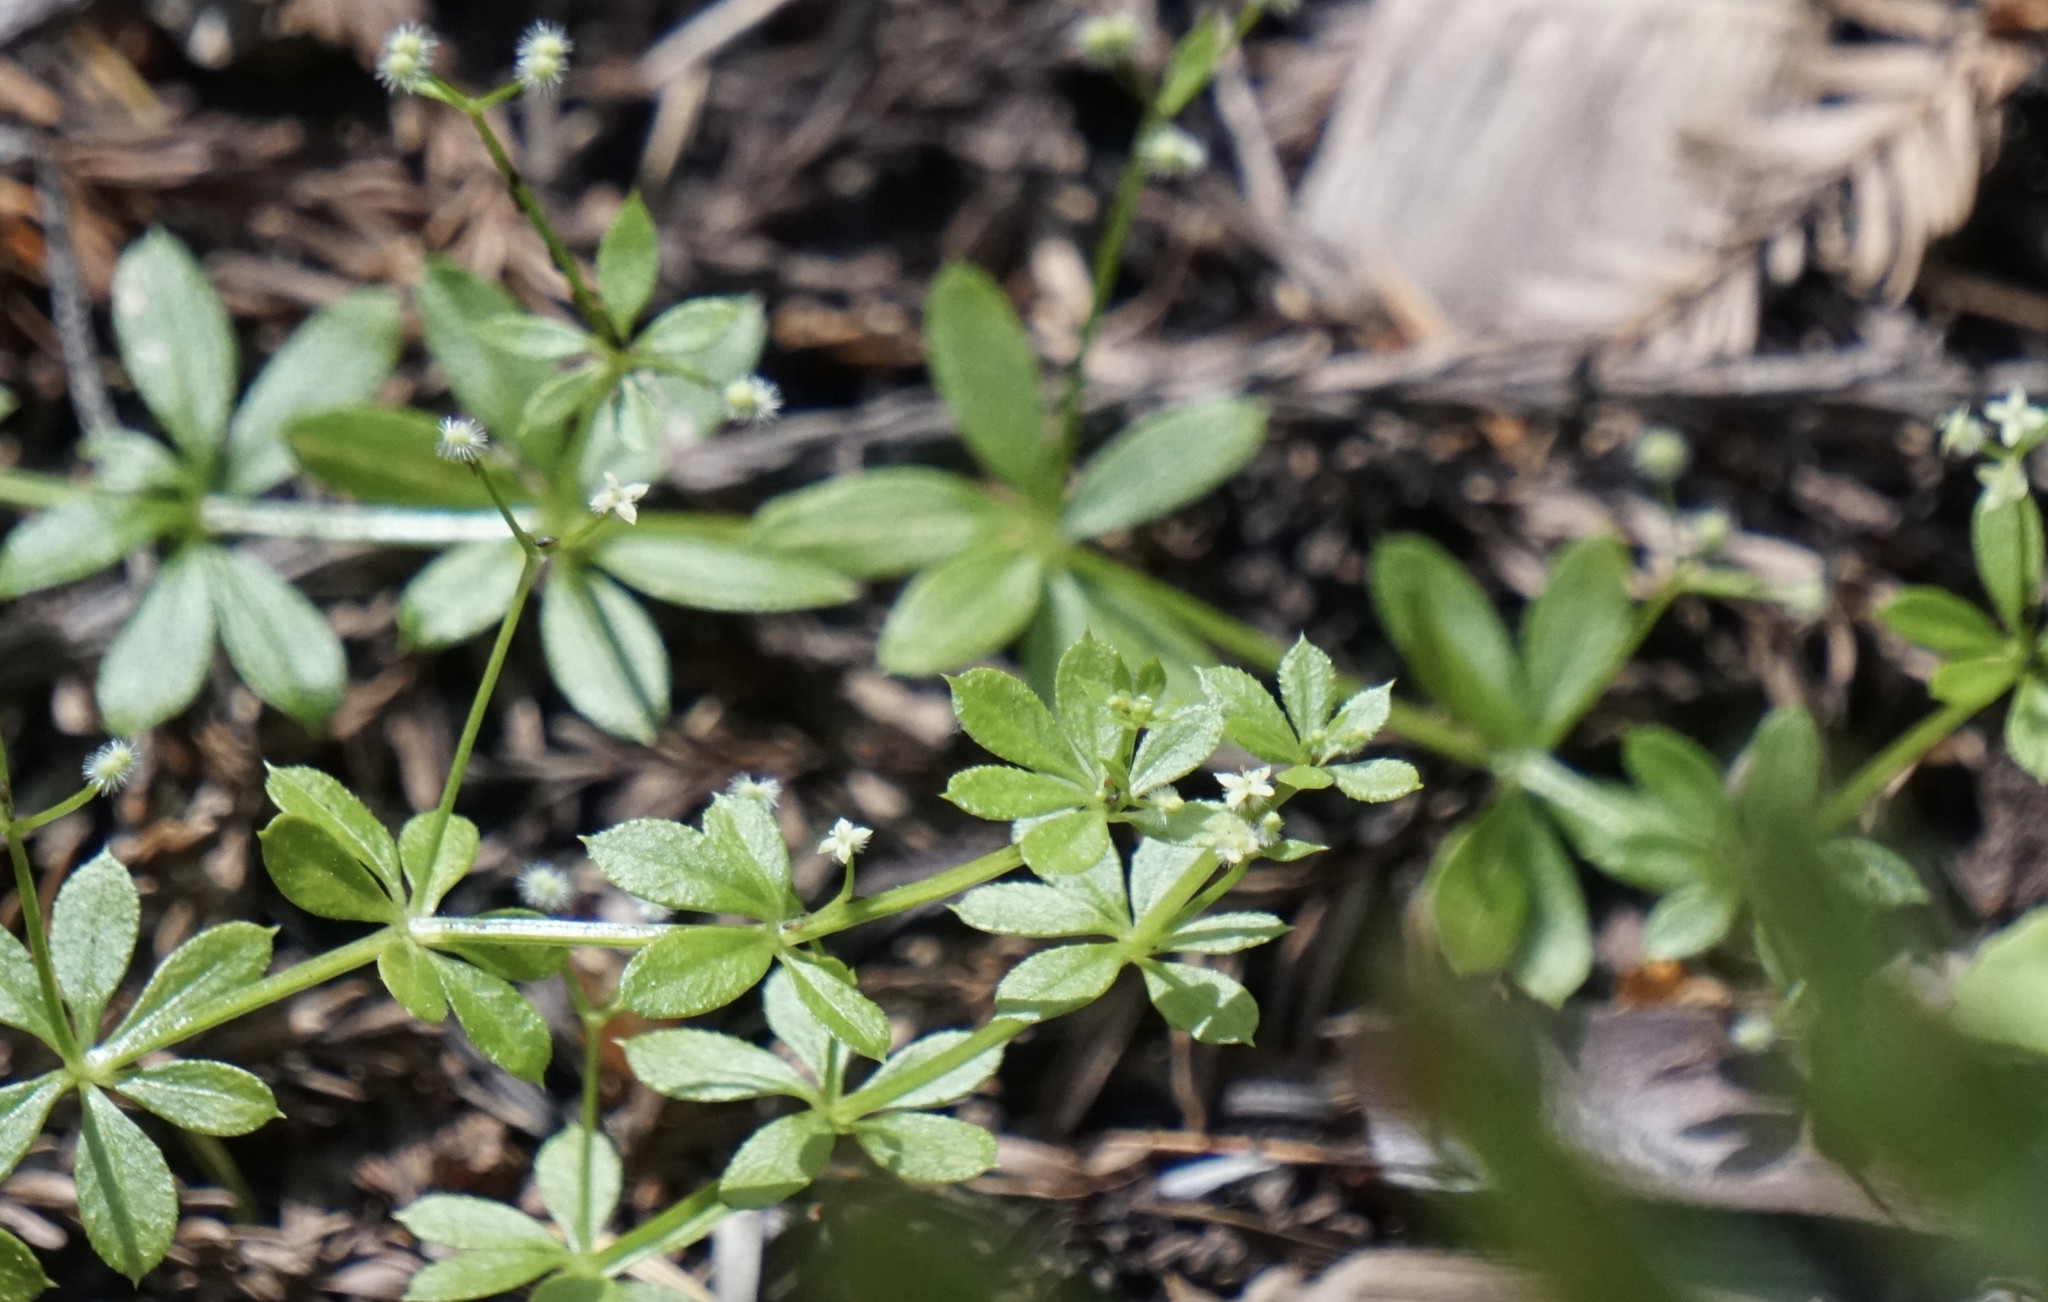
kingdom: Plantae
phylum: Tracheophyta
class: Magnoliopsida
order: Gentianales
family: Rubiaceae
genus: Galium
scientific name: Galium triflorum
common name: Fragrant bedstraw
